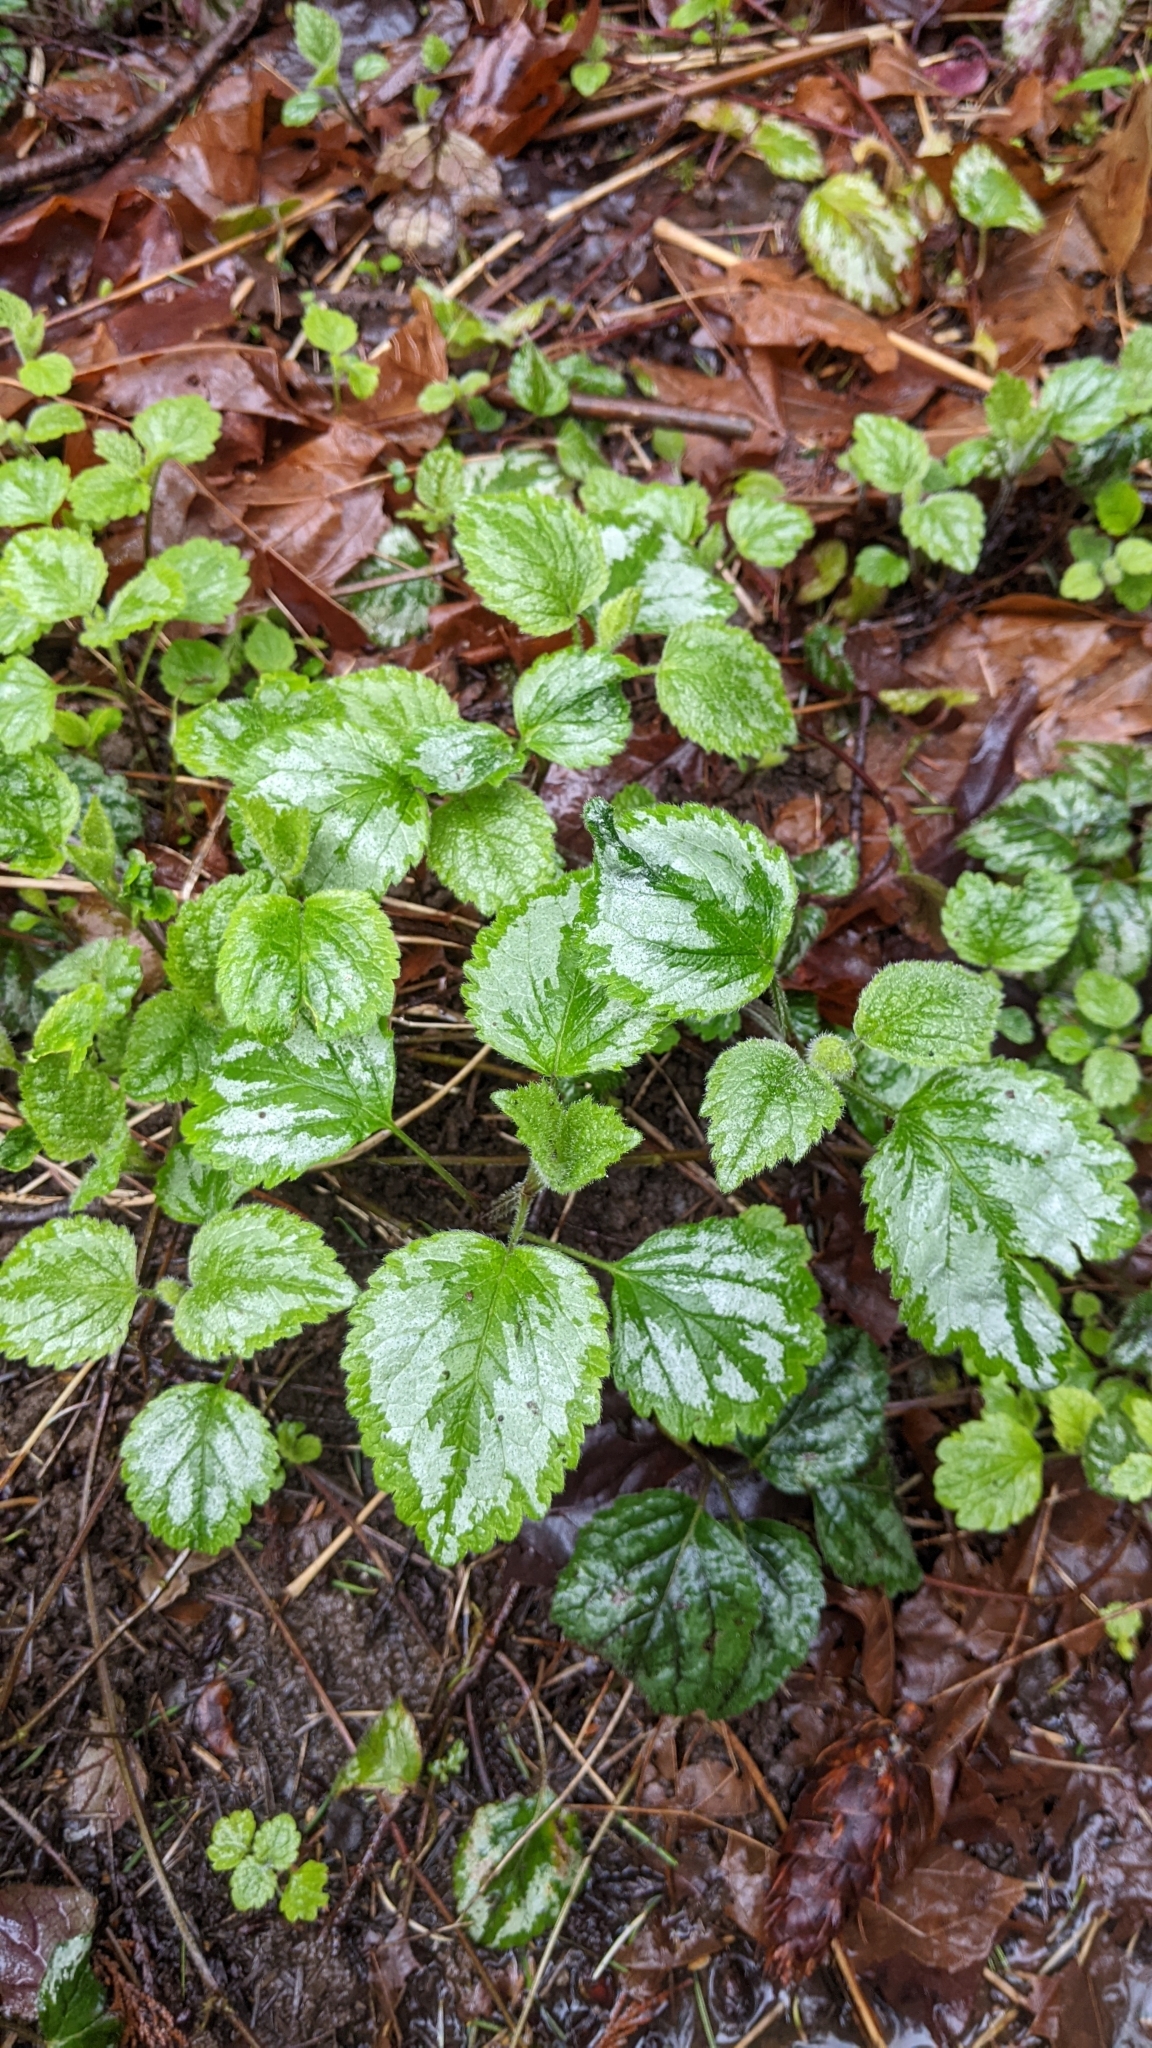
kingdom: Plantae
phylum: Tracheophyta
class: Magnoliopsida
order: Lamiales
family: Lamiaceae
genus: Lamium
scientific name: Lamium galeobdolon
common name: Yellow archangel
